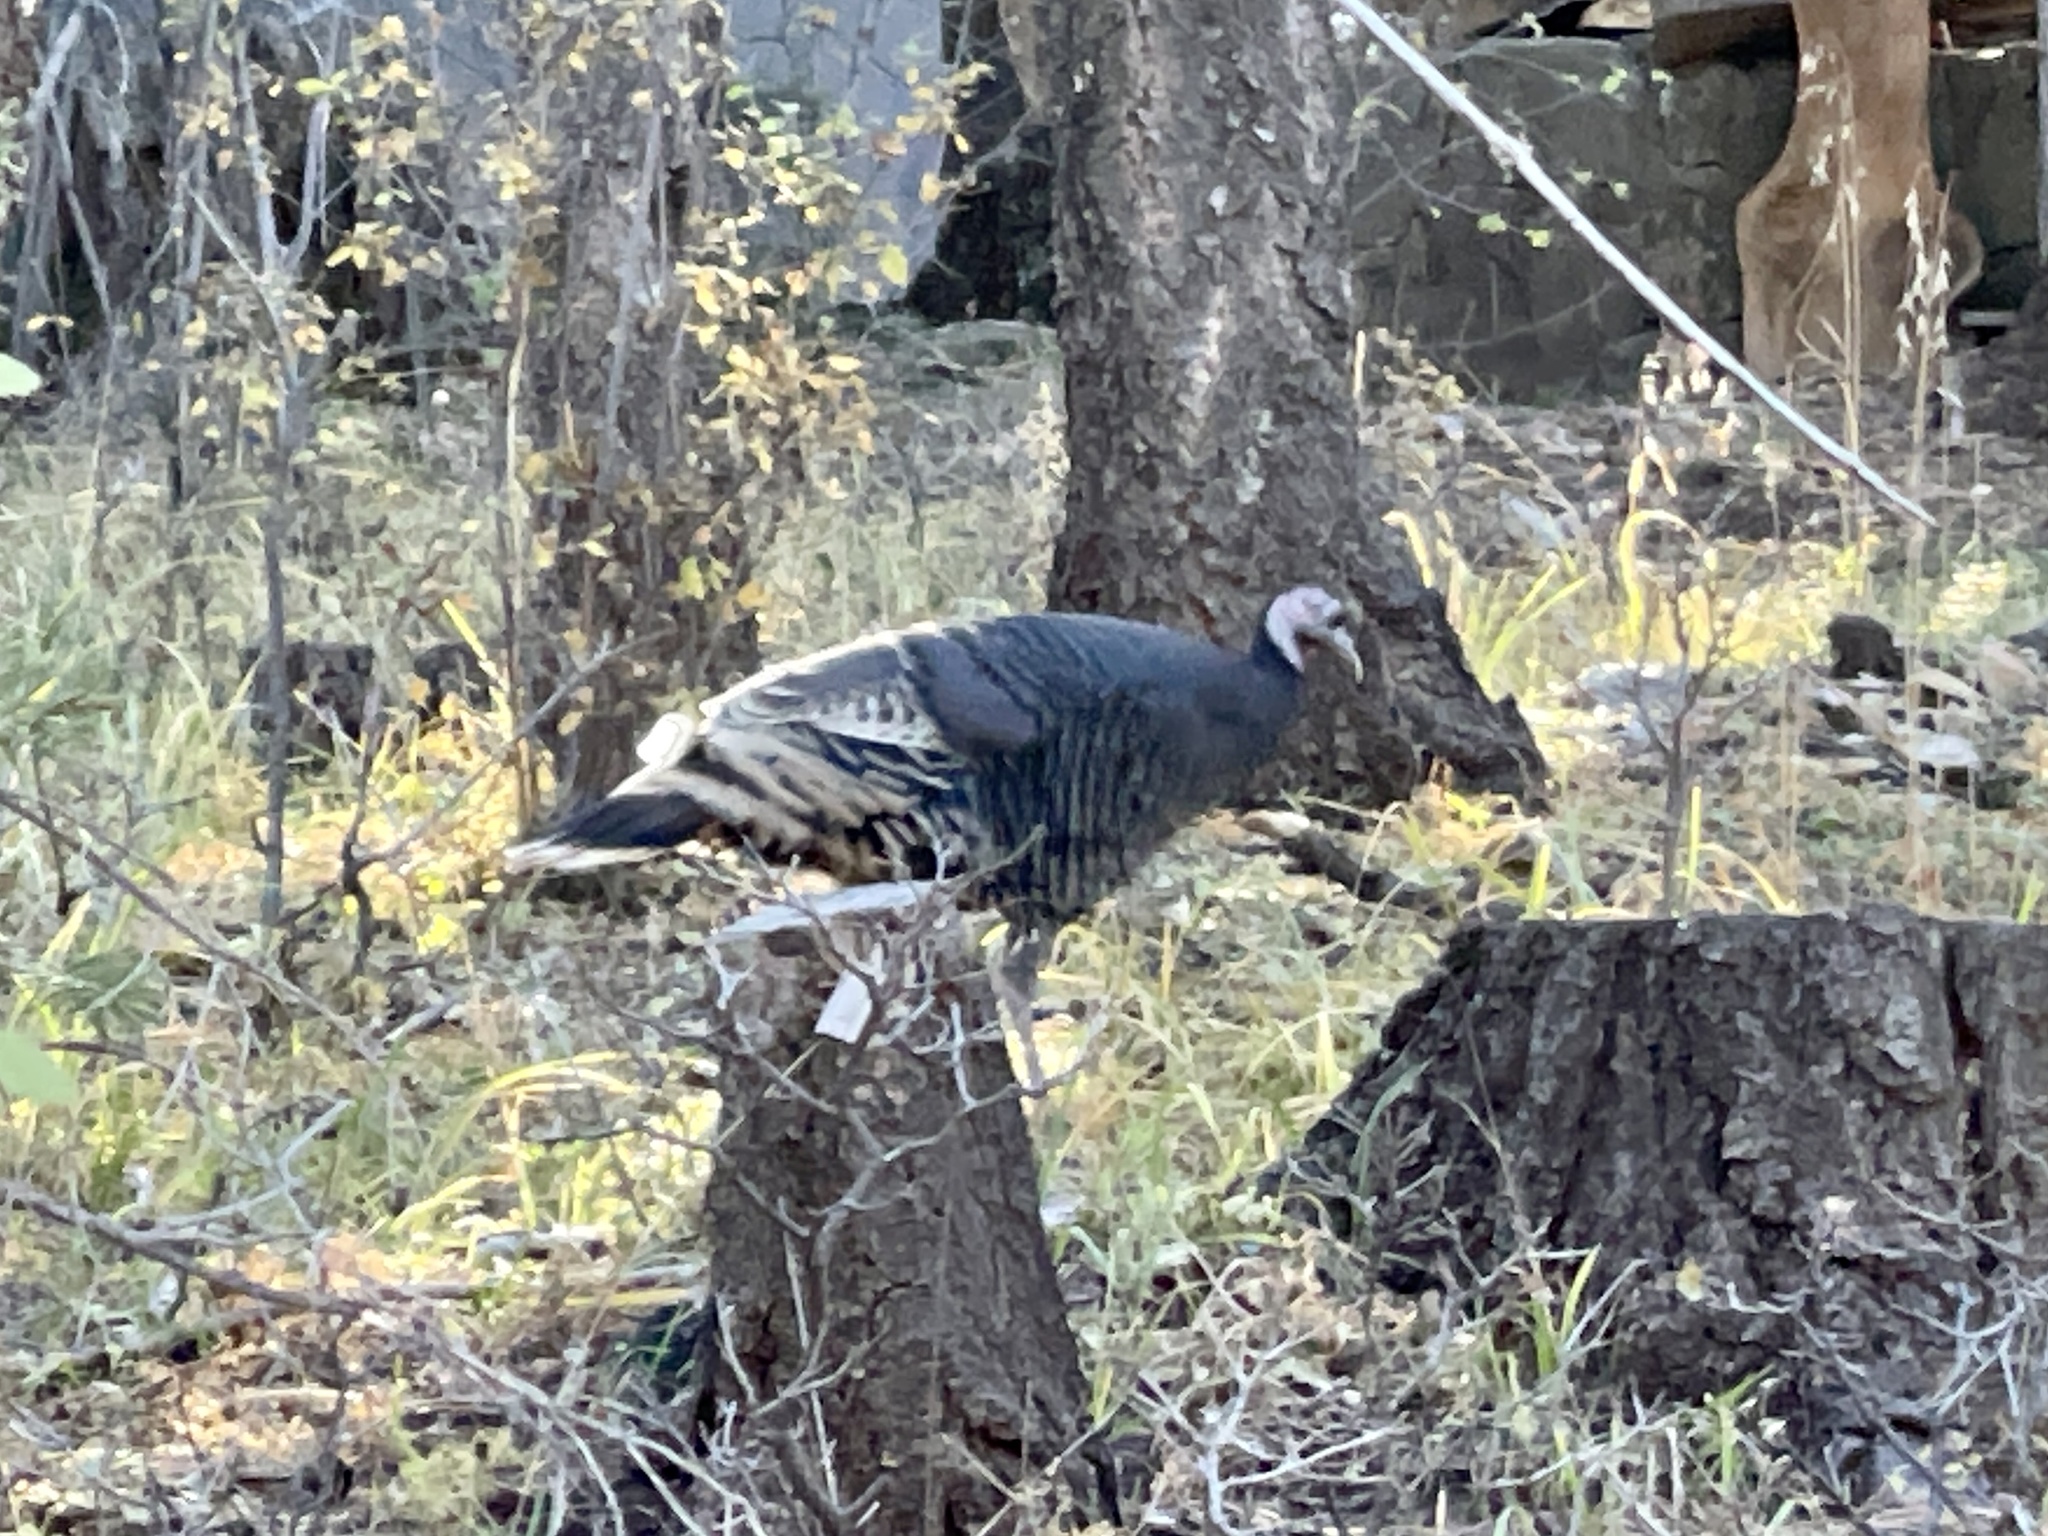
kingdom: Animalia
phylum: Chordata
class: Aves
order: Galliformes
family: Phasianidae
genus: Meleagris
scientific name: Meleagris gallopavo
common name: Wild turkey
